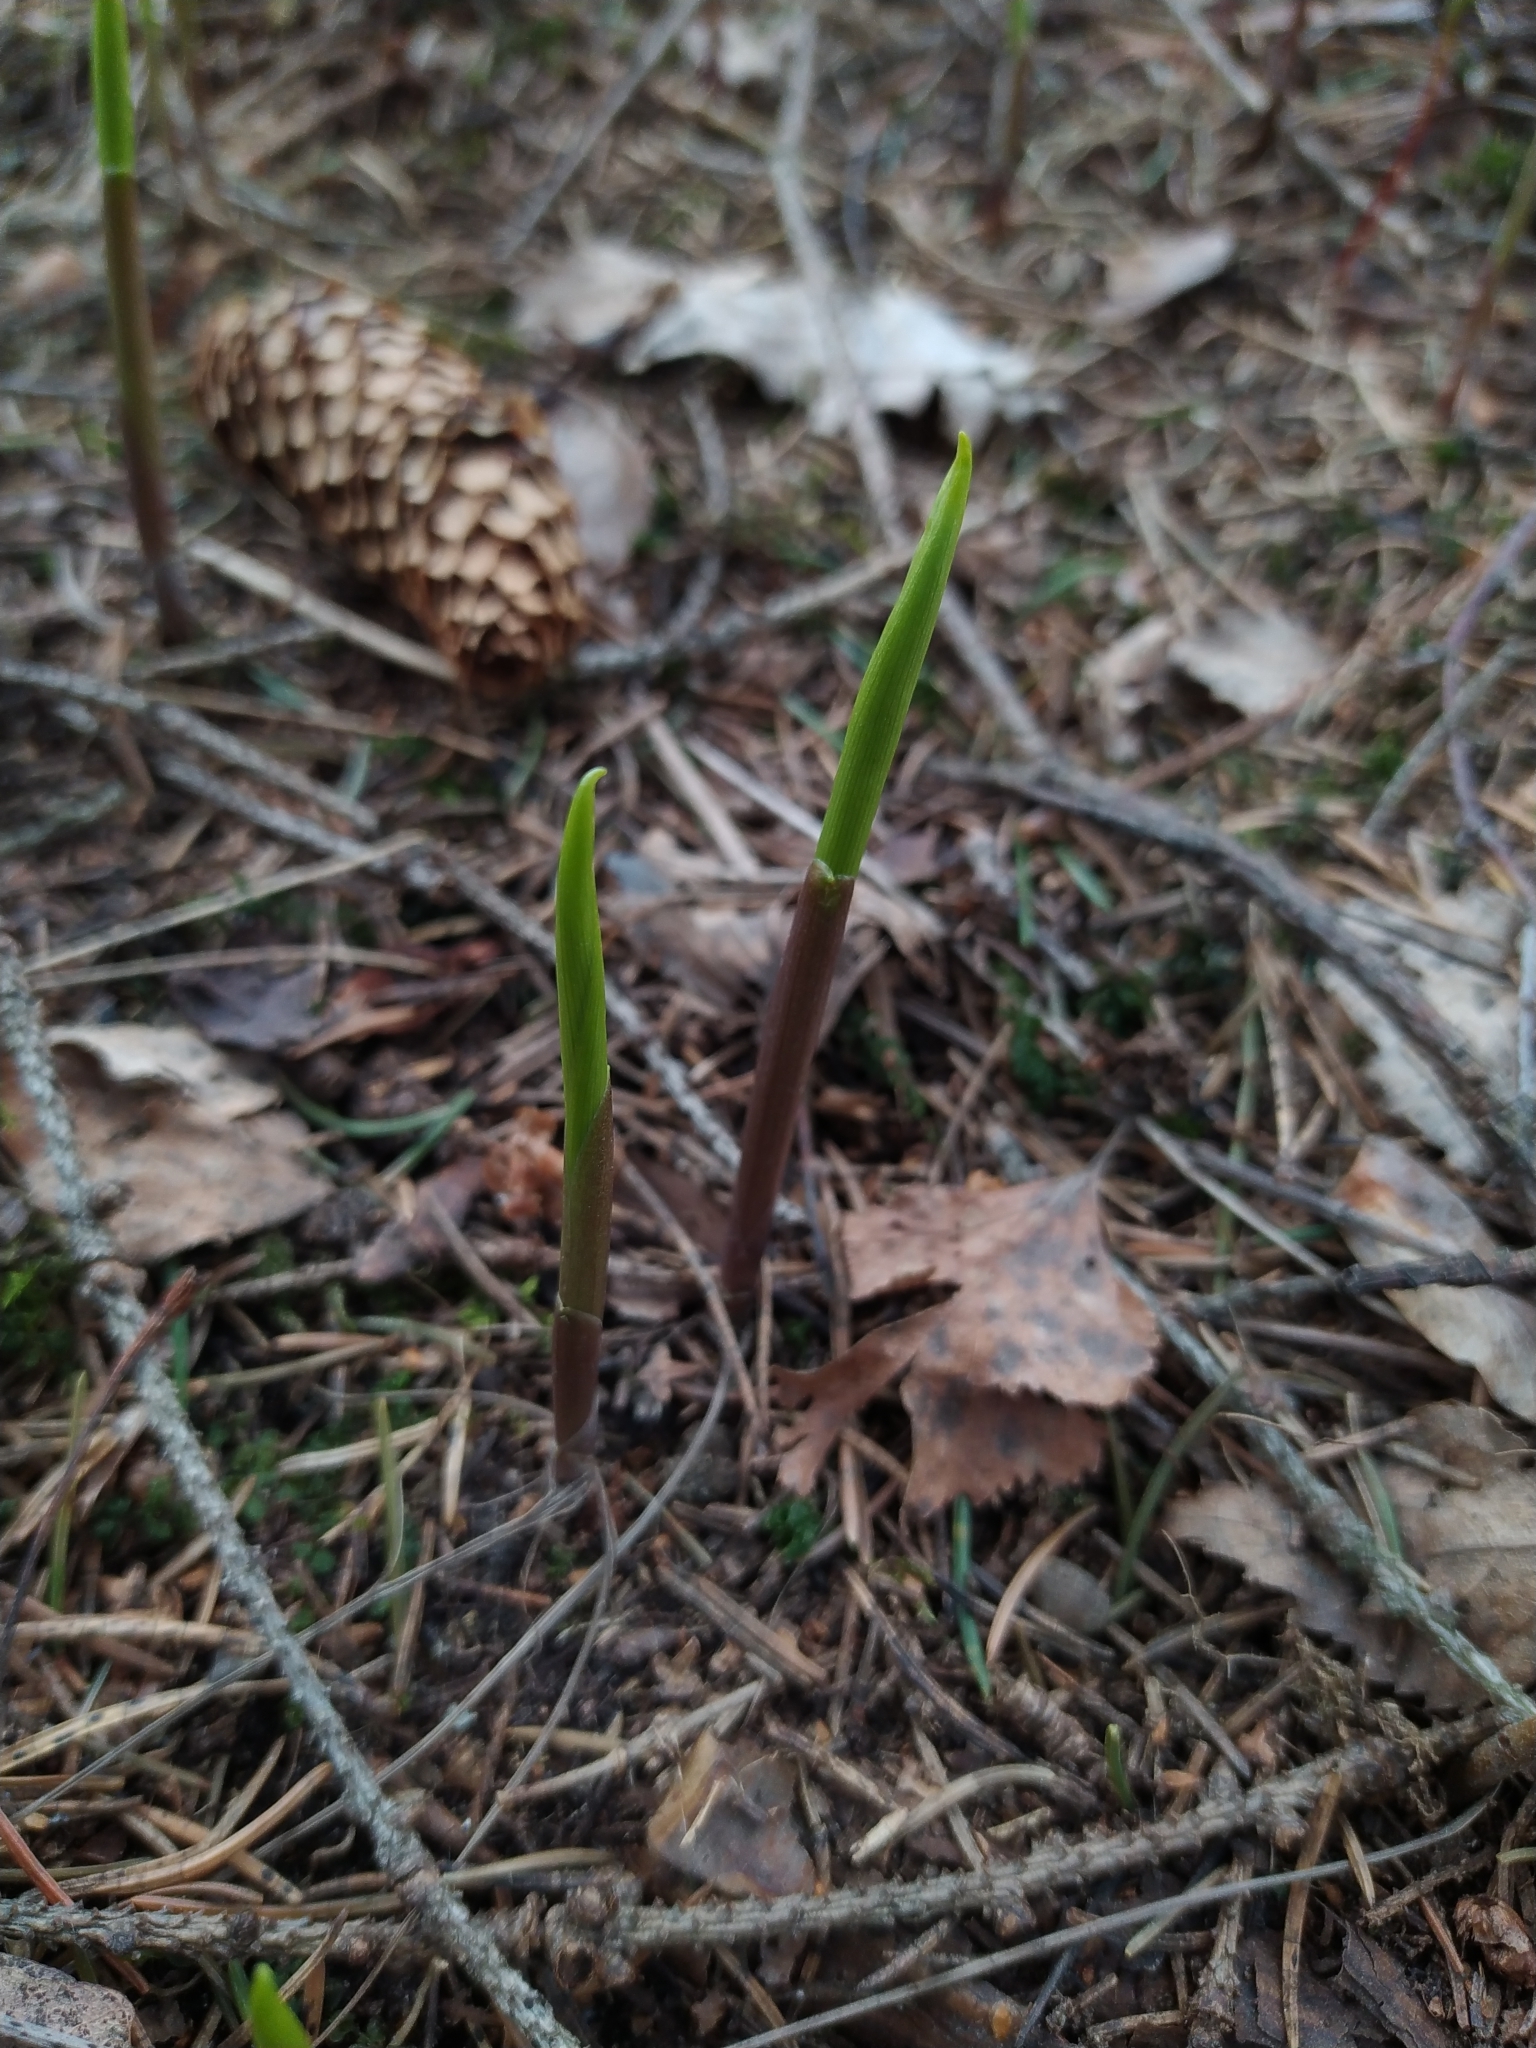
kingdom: Plantae
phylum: Tracheophyta
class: Liliopsida
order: Asparagales
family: Asparagaceae
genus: Convallaria
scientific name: Convallaria majalis
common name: Lily-of-the-valley
